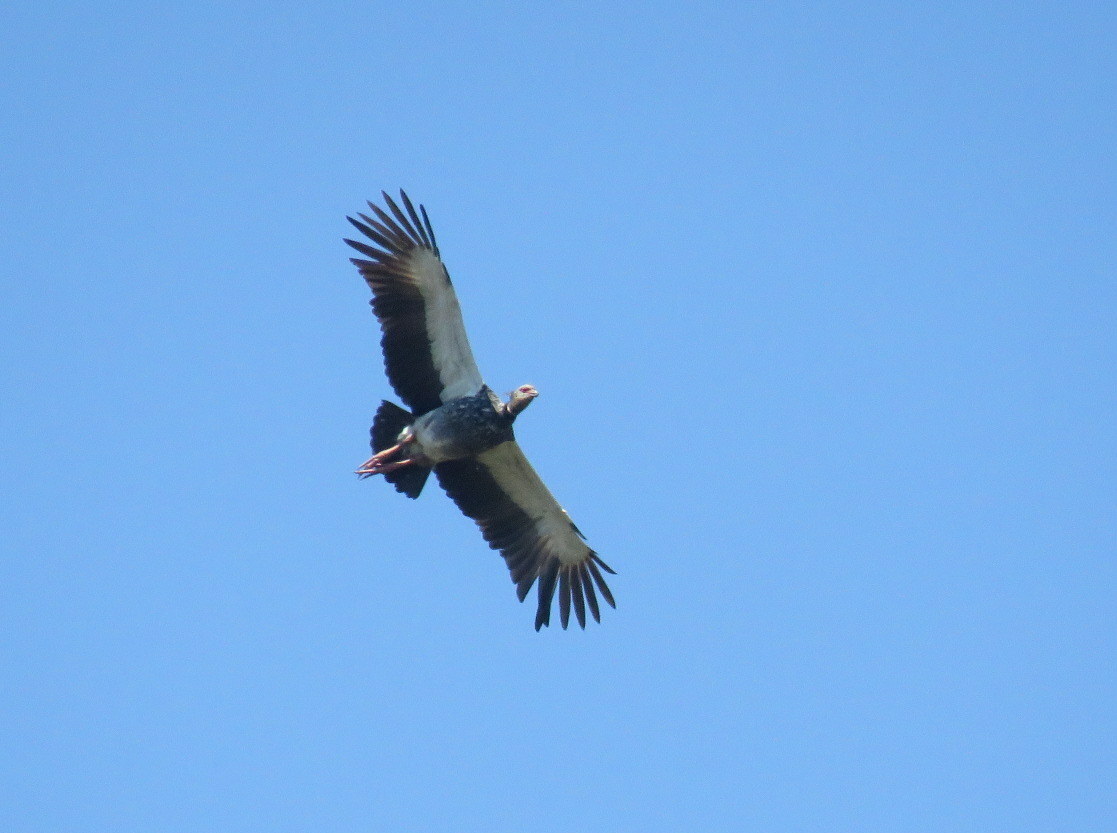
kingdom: Animalia
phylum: Chordata
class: Aves
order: Anseriformes
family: Anhimidae
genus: Chauna
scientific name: Chauna torquata
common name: Southern screamer
